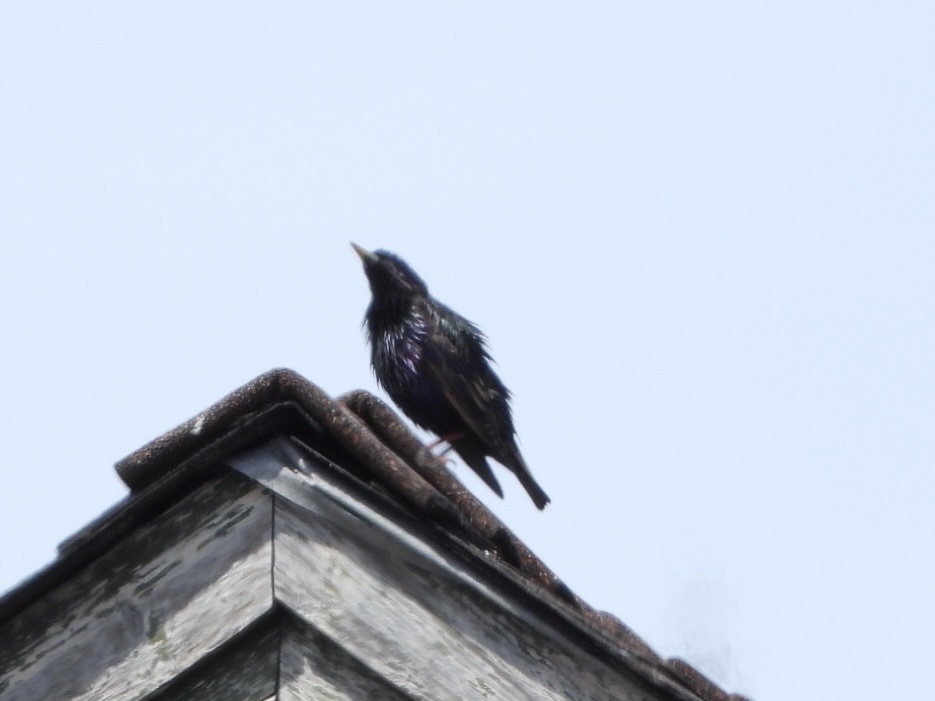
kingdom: Animalia
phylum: Chordata
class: Aves
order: Passeriformes
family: Sturnidae
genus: Sturnus
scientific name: Sturnus vulgaris
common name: Common starling
